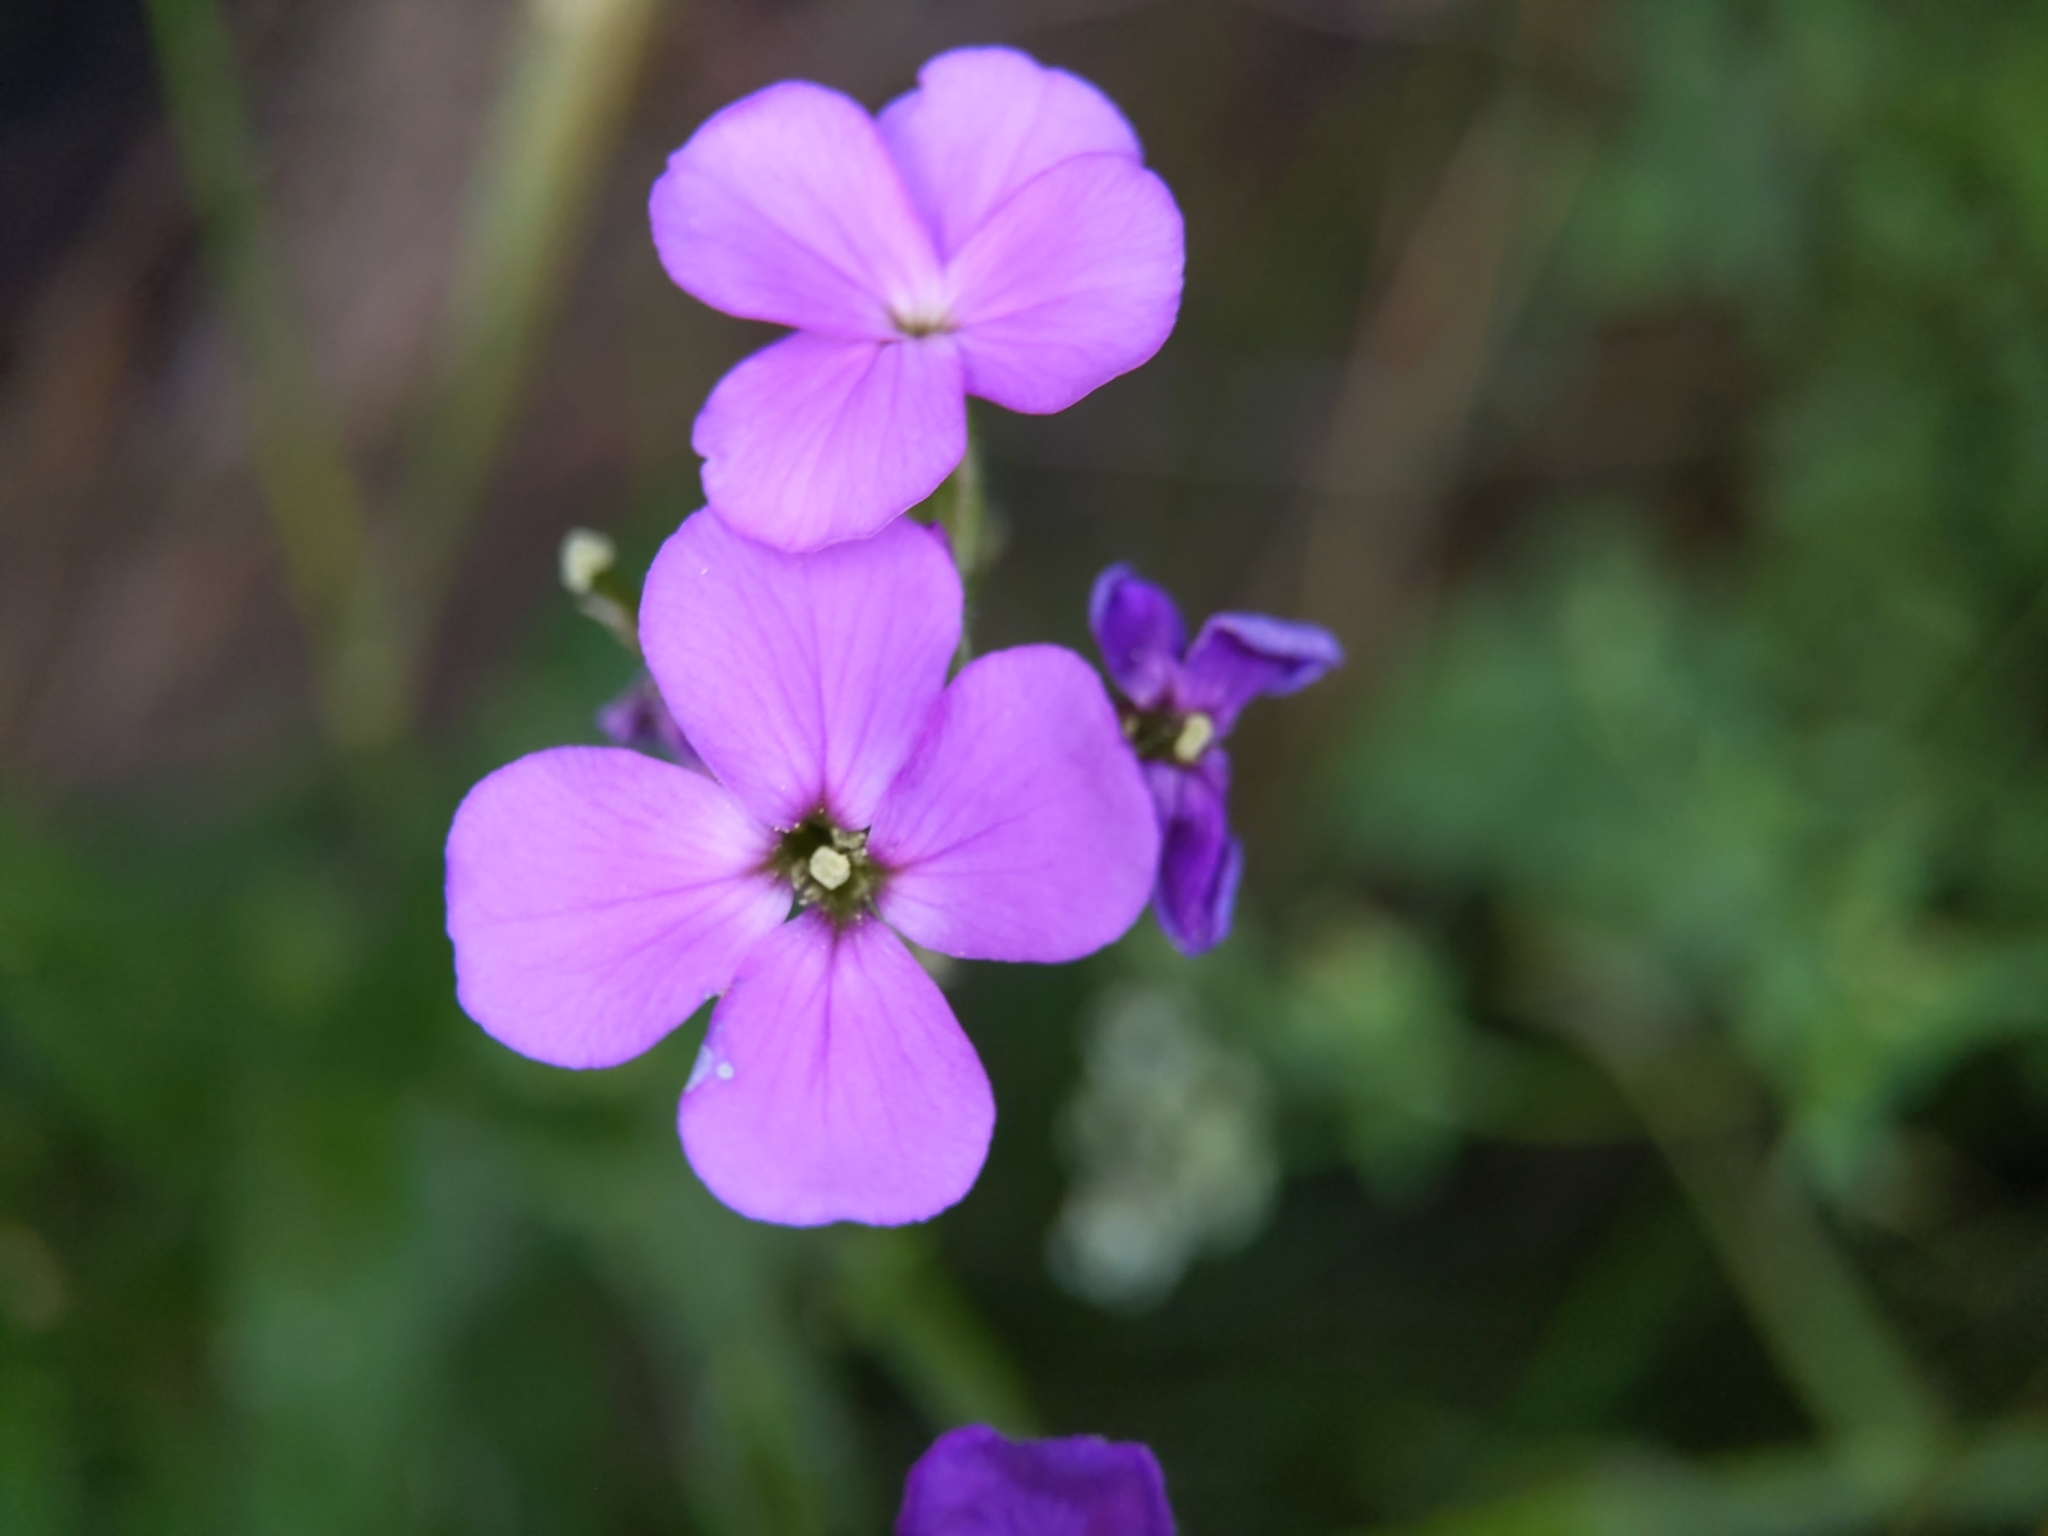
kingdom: Plantae
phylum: Tracheophyta
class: Magnoliopsida
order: Brassicales
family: Brassicaceae
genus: Hesperis
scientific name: Hesperis matronalis
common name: Dame's-violet
